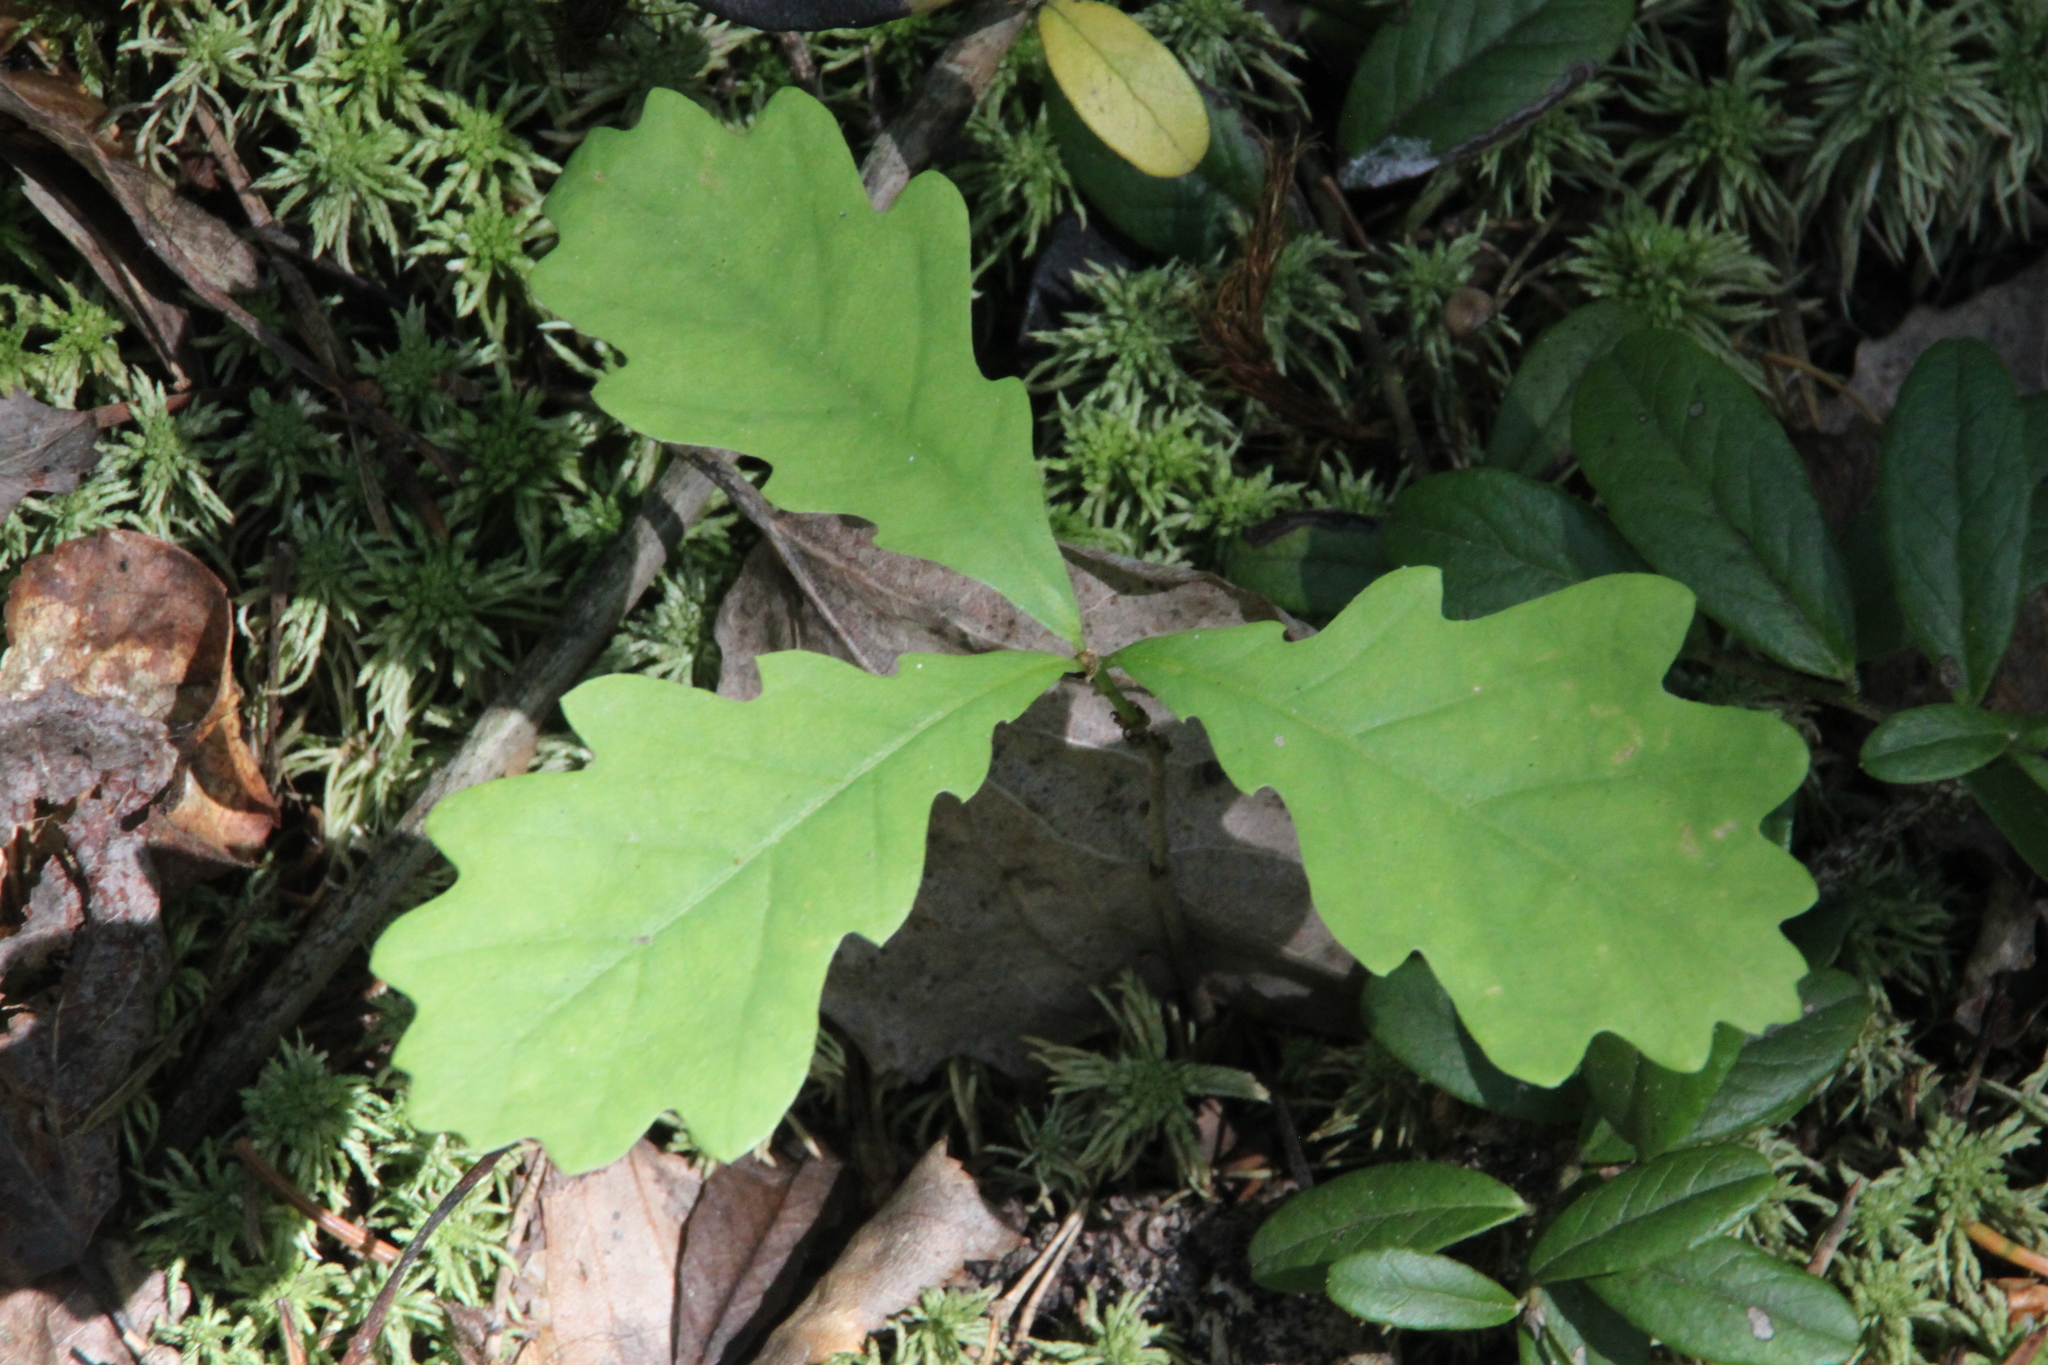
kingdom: Plantae
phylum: Tracheophyta
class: Magnoliopsida
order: Fagales
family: Fagaceae
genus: Quercus
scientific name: Quercus robur
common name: Pedunculate oak
